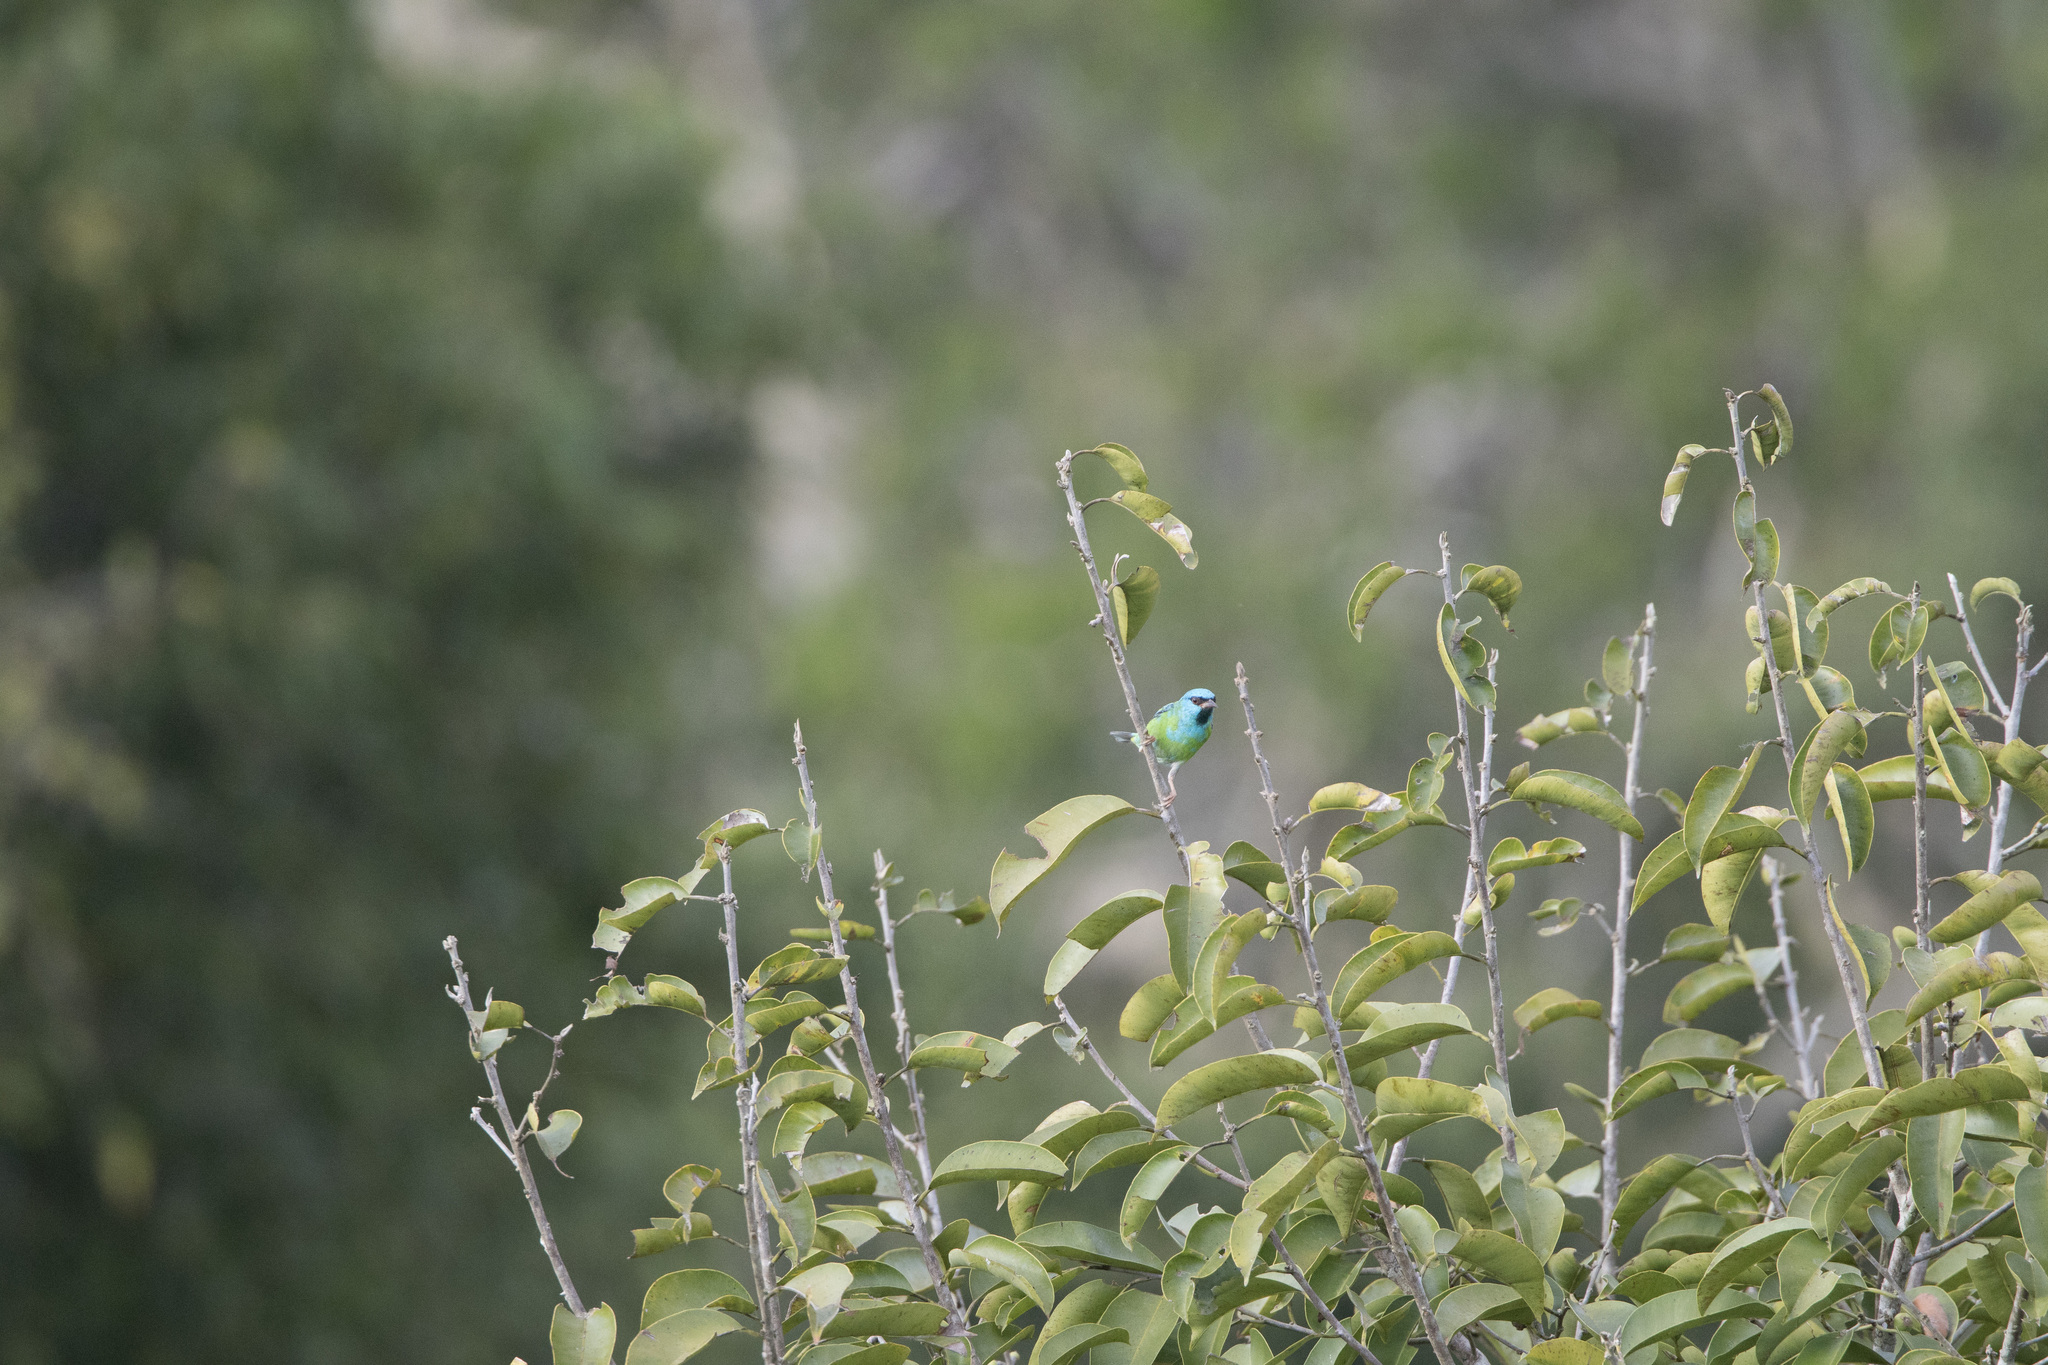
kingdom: Animalia
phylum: Chordata
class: Aves
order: Passeriformes
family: Thraupidae
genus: Dacnis
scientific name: Dacnis cayana
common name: Blue dacnis
